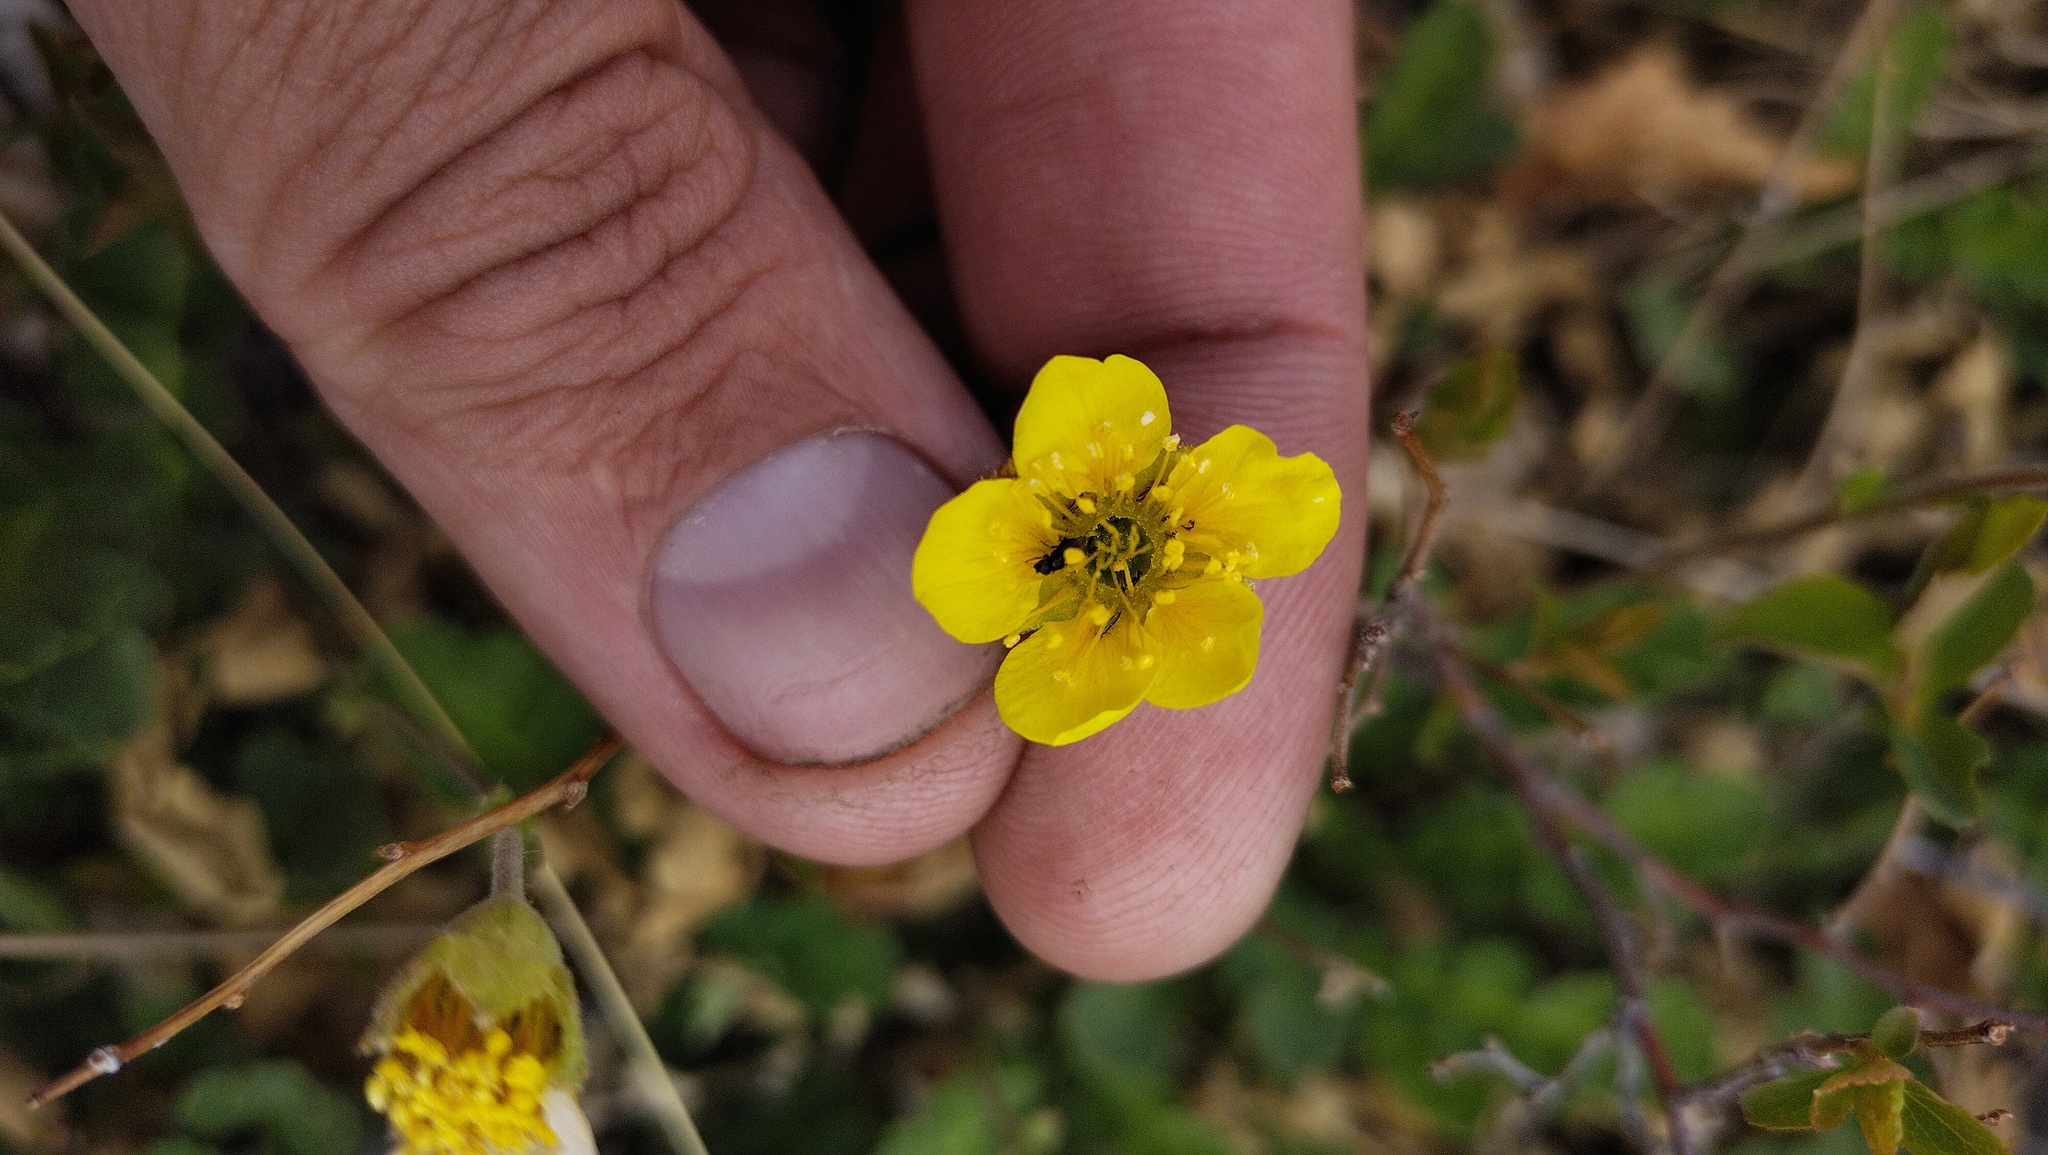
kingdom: Plantae
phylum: Tracheophyta
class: Magnoliopsida
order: Rosales
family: Rosaceae
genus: Geum
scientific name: Geum geoides
